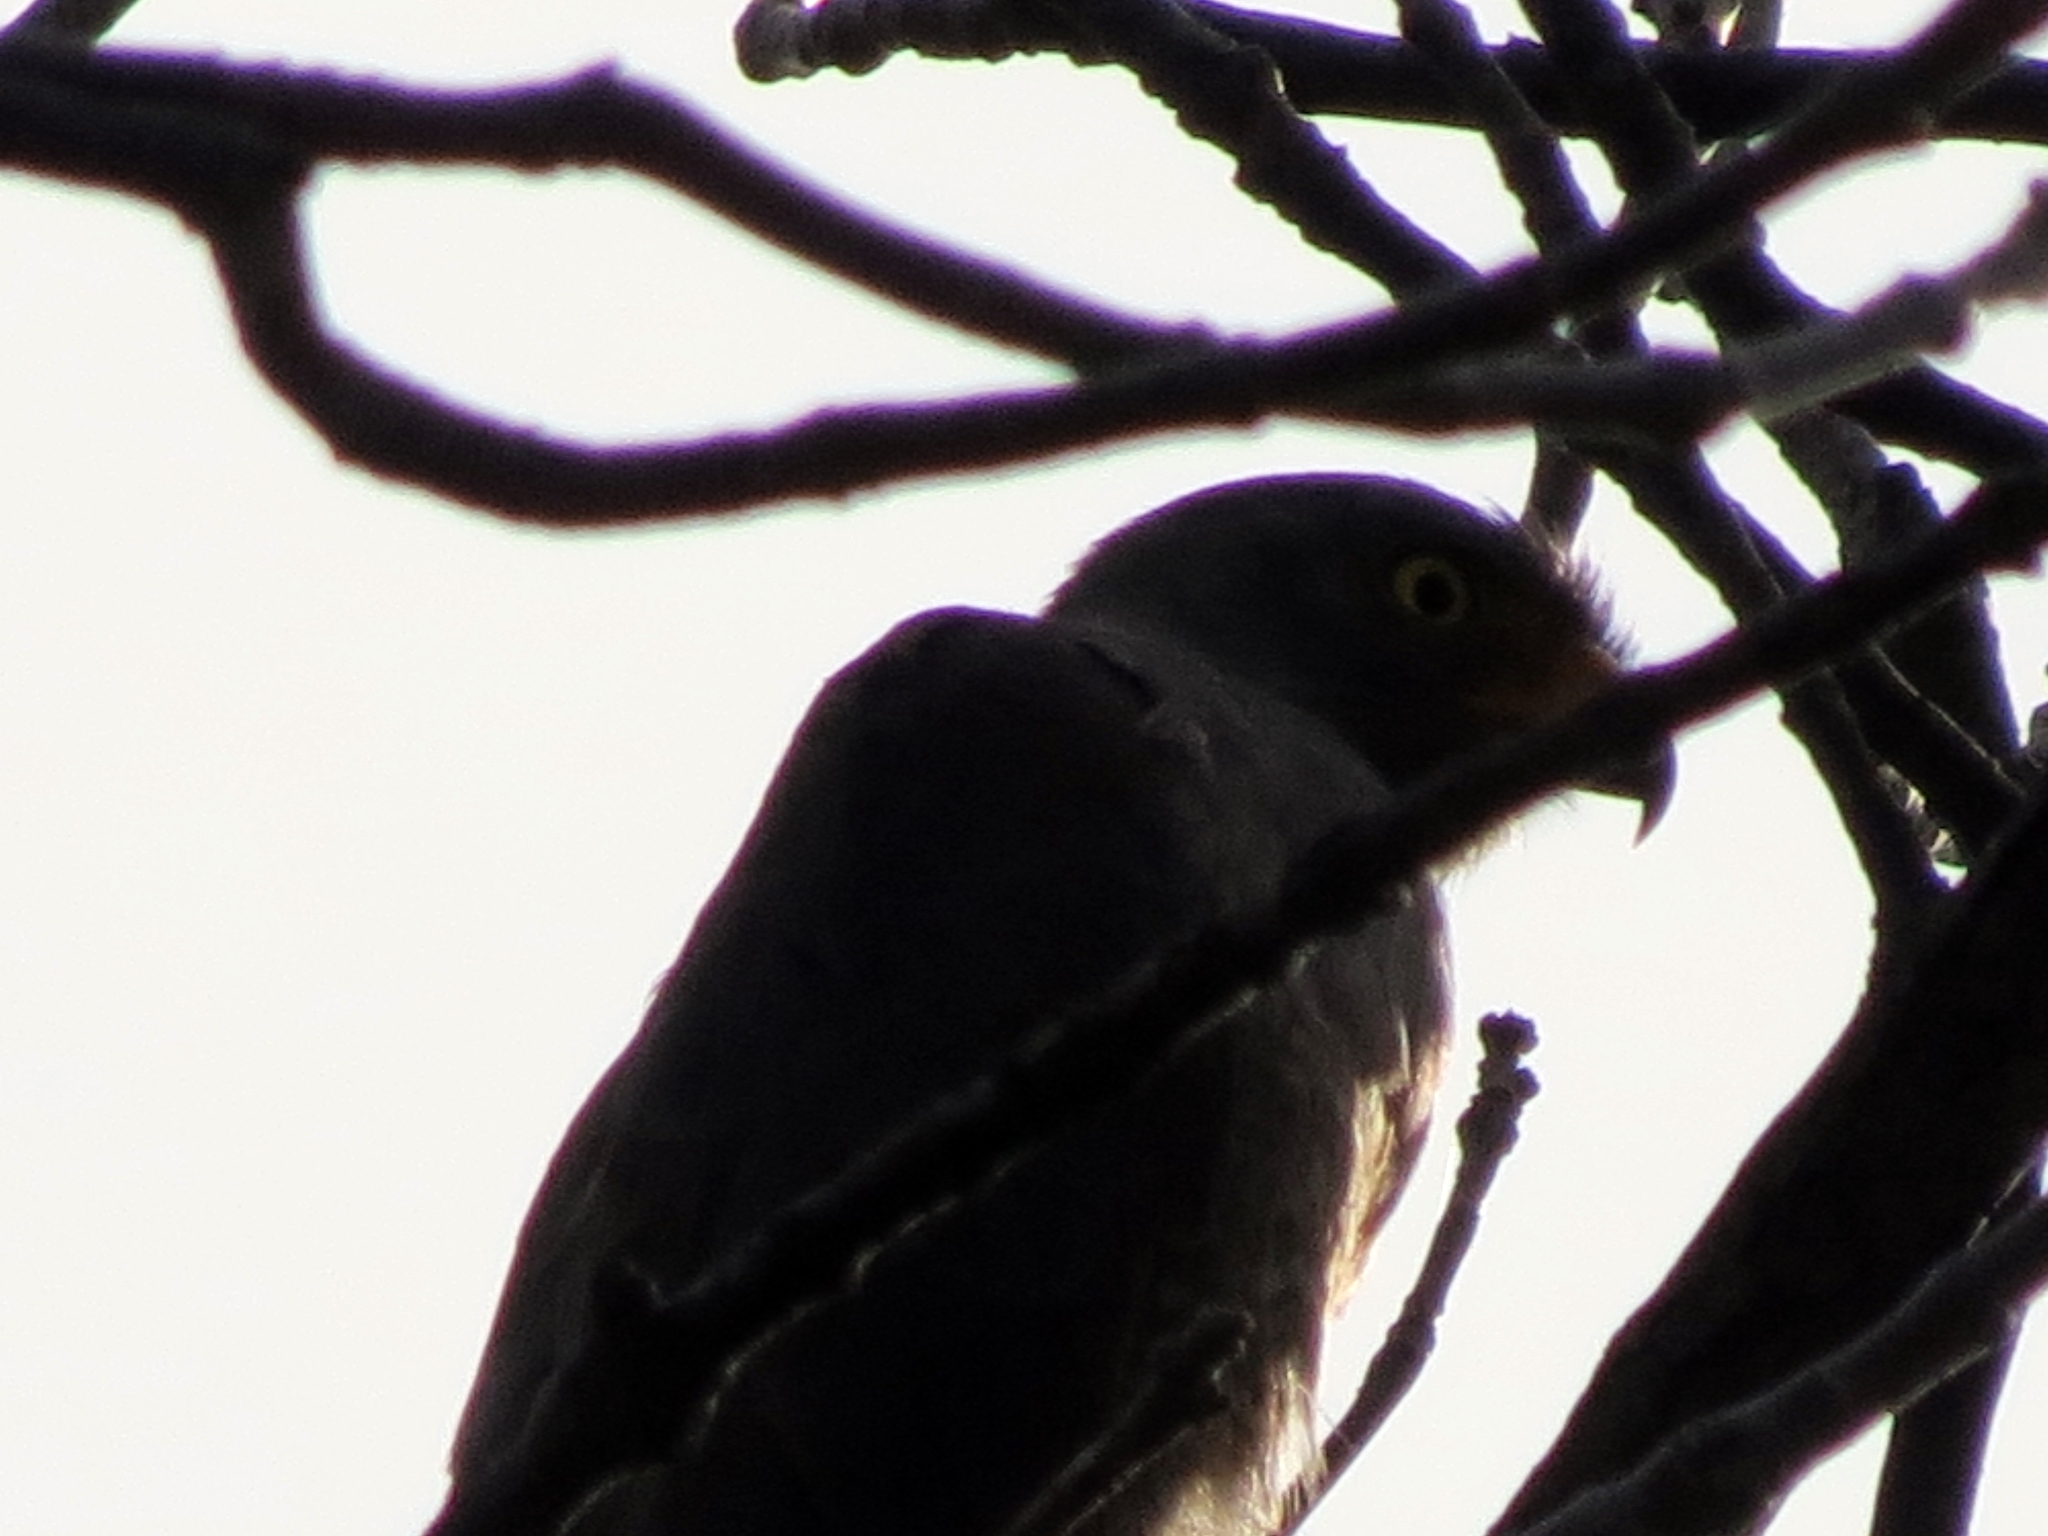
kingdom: Animalia
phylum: Chordata
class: Aves
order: Accipitriformes
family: Accipitridae
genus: Rupornis
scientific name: Rupornis magnirostris
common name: Roadside hawk
